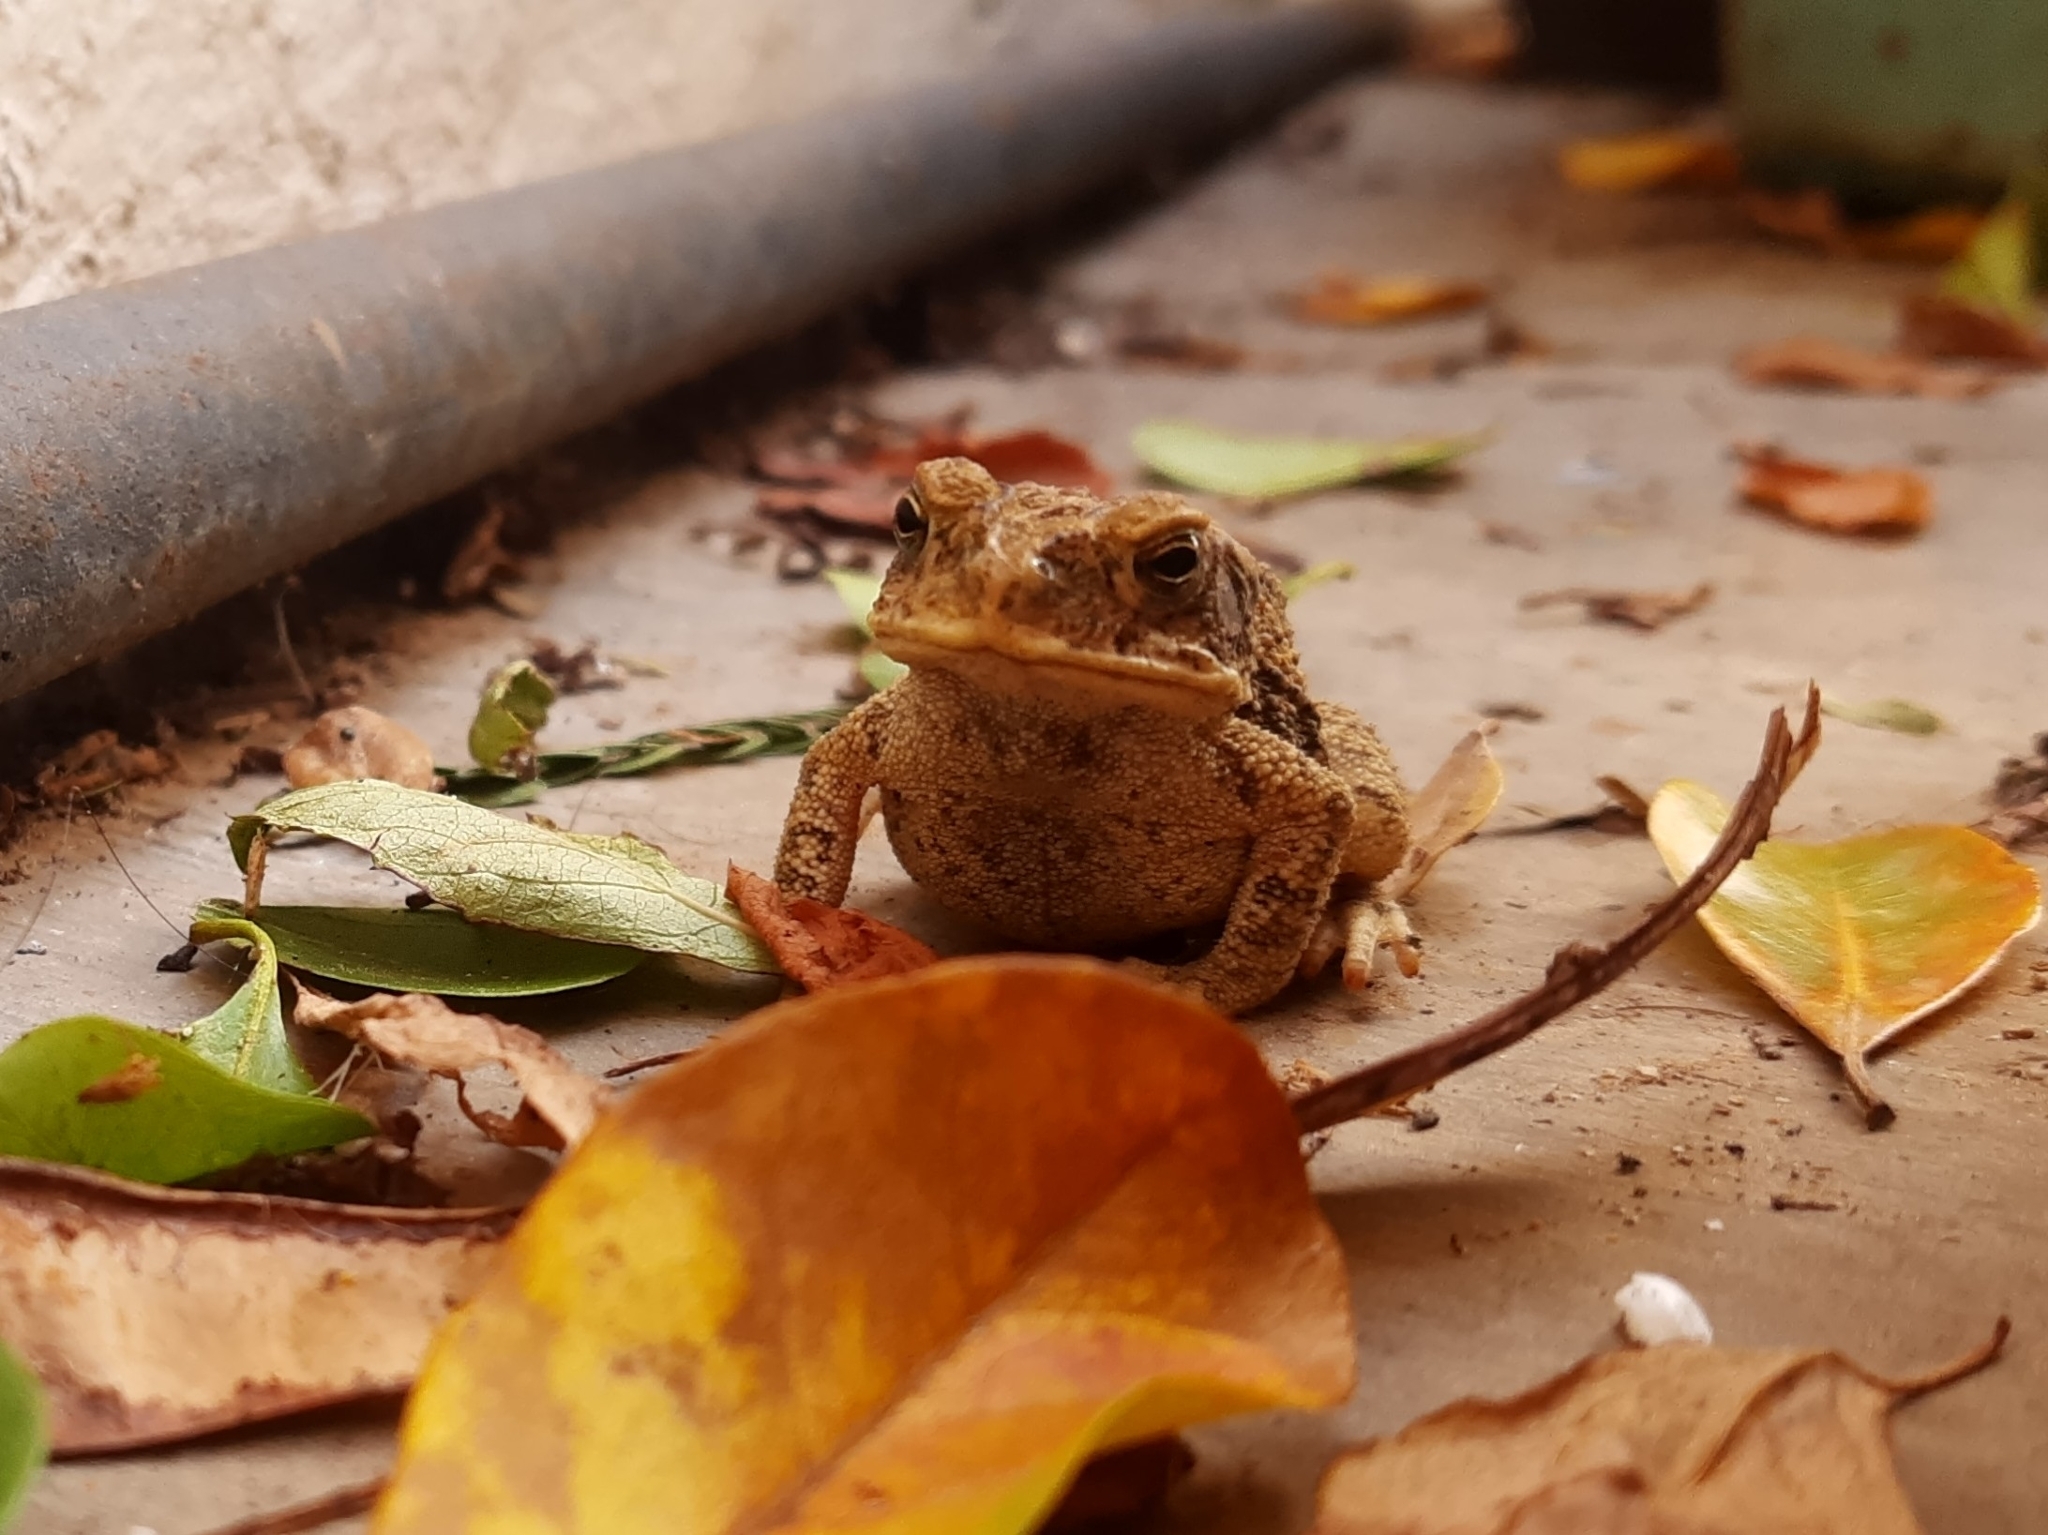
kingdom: Animalia
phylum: Chordata
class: Amphibia
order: Anura
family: Bufonidae
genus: Incilius
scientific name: Incilius mazatlanensis
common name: Sinaloa toad
